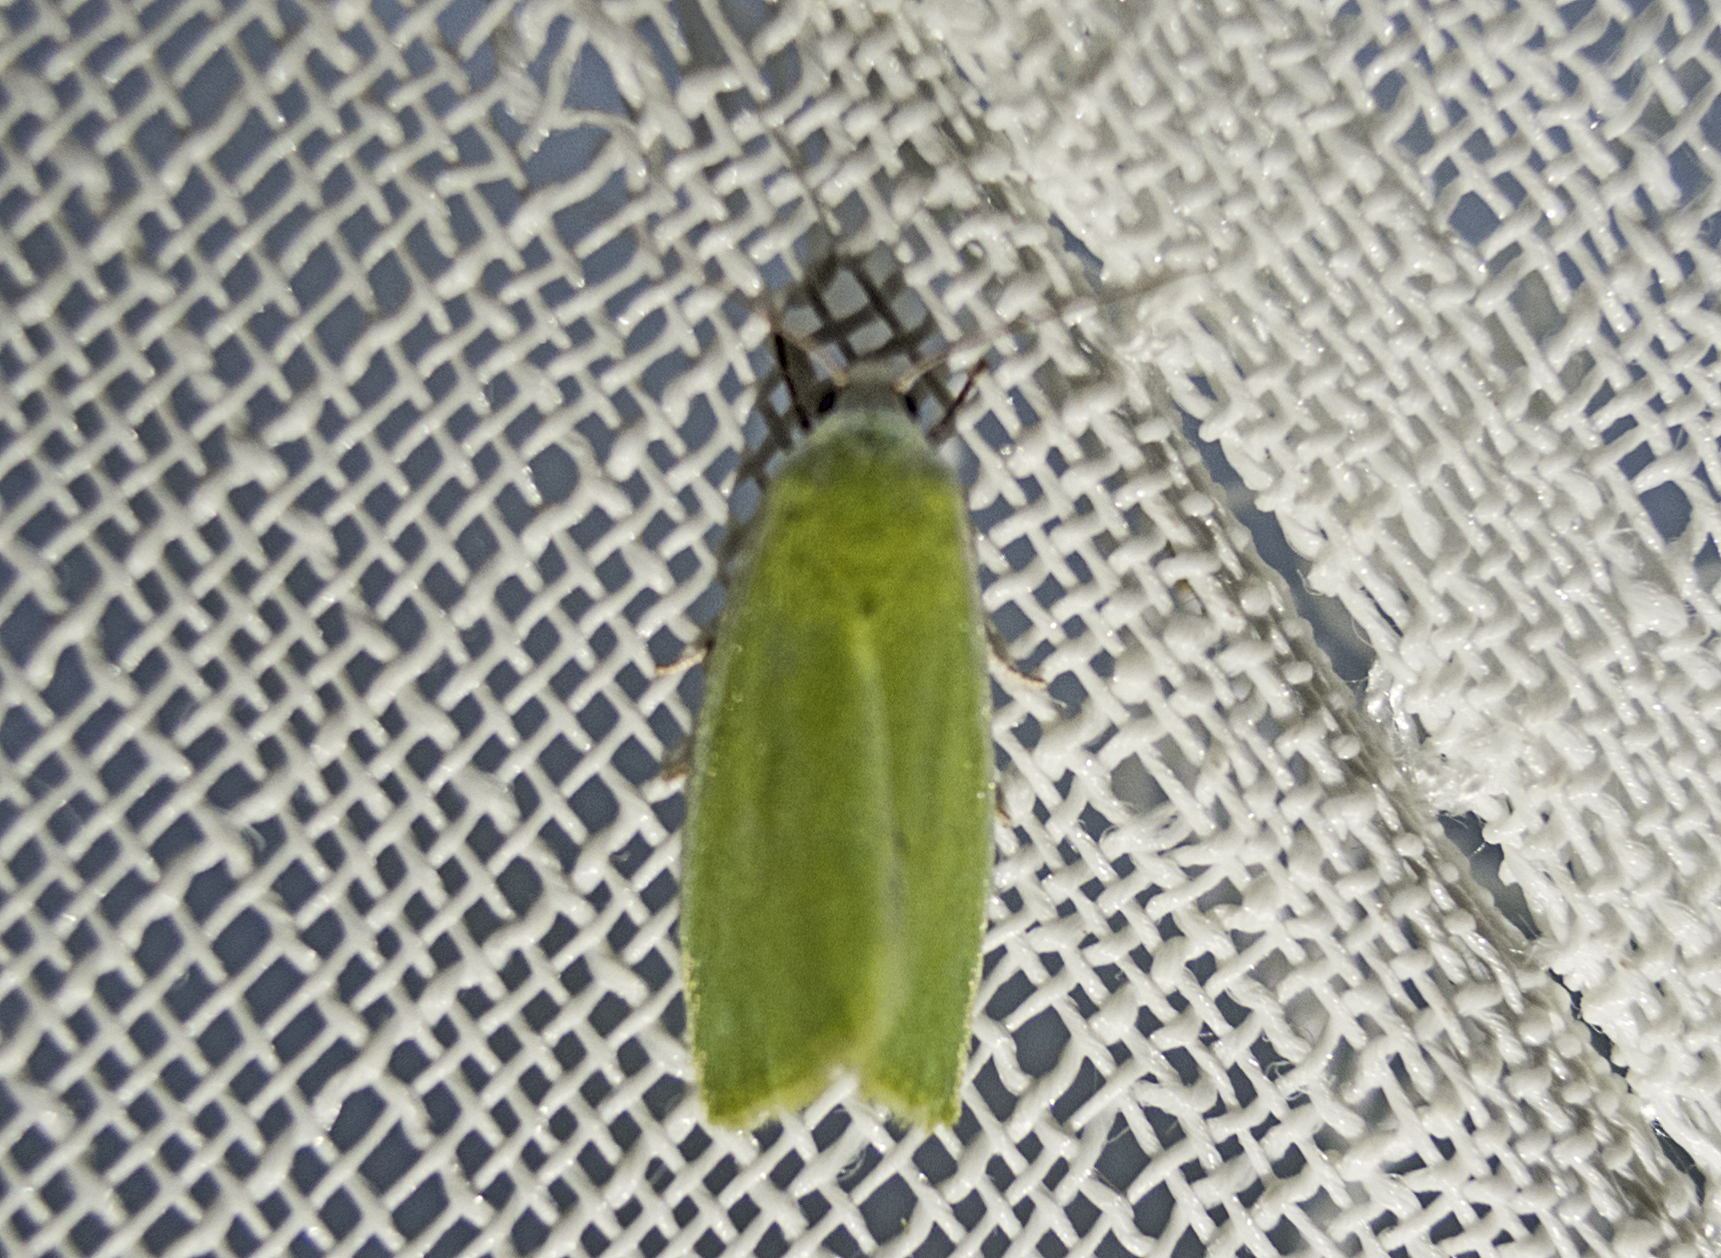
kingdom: Animalia
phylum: Arthropoda
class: Insecta
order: Lepidoptera
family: Nolidae
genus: Earias
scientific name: Earias clorana
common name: Cream-bordered green pea
